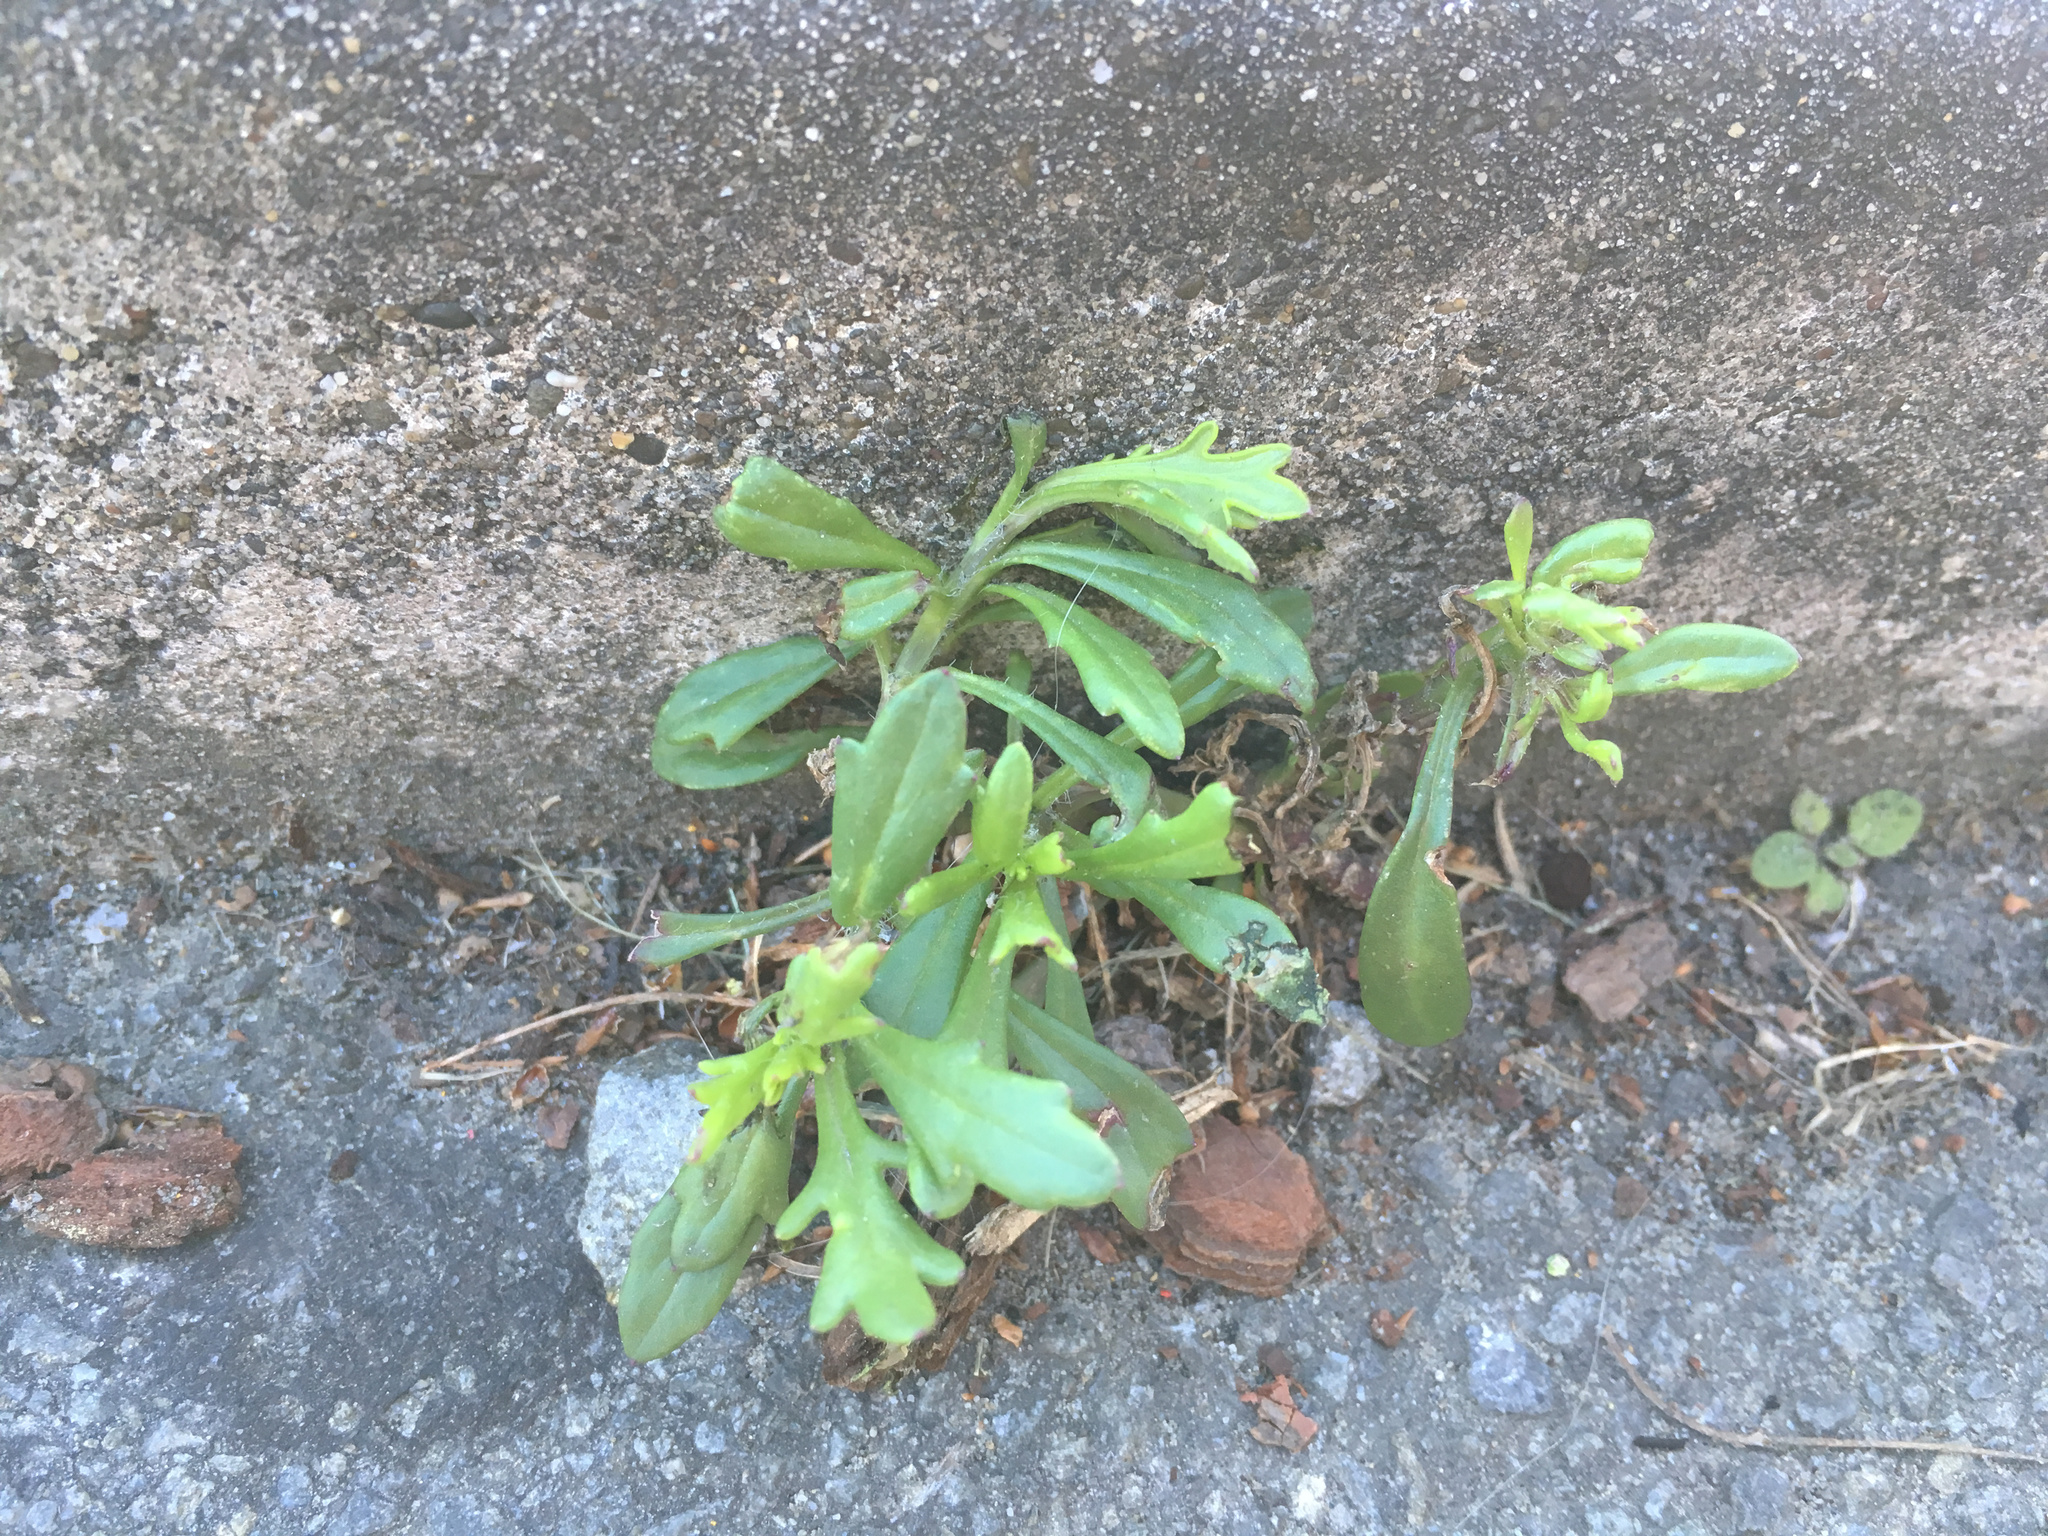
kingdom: Plantae
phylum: Tracheophyta
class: Magnoliopsida
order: Asterales
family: Asteraceae
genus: Senecio
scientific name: Senecio skirrhodon
